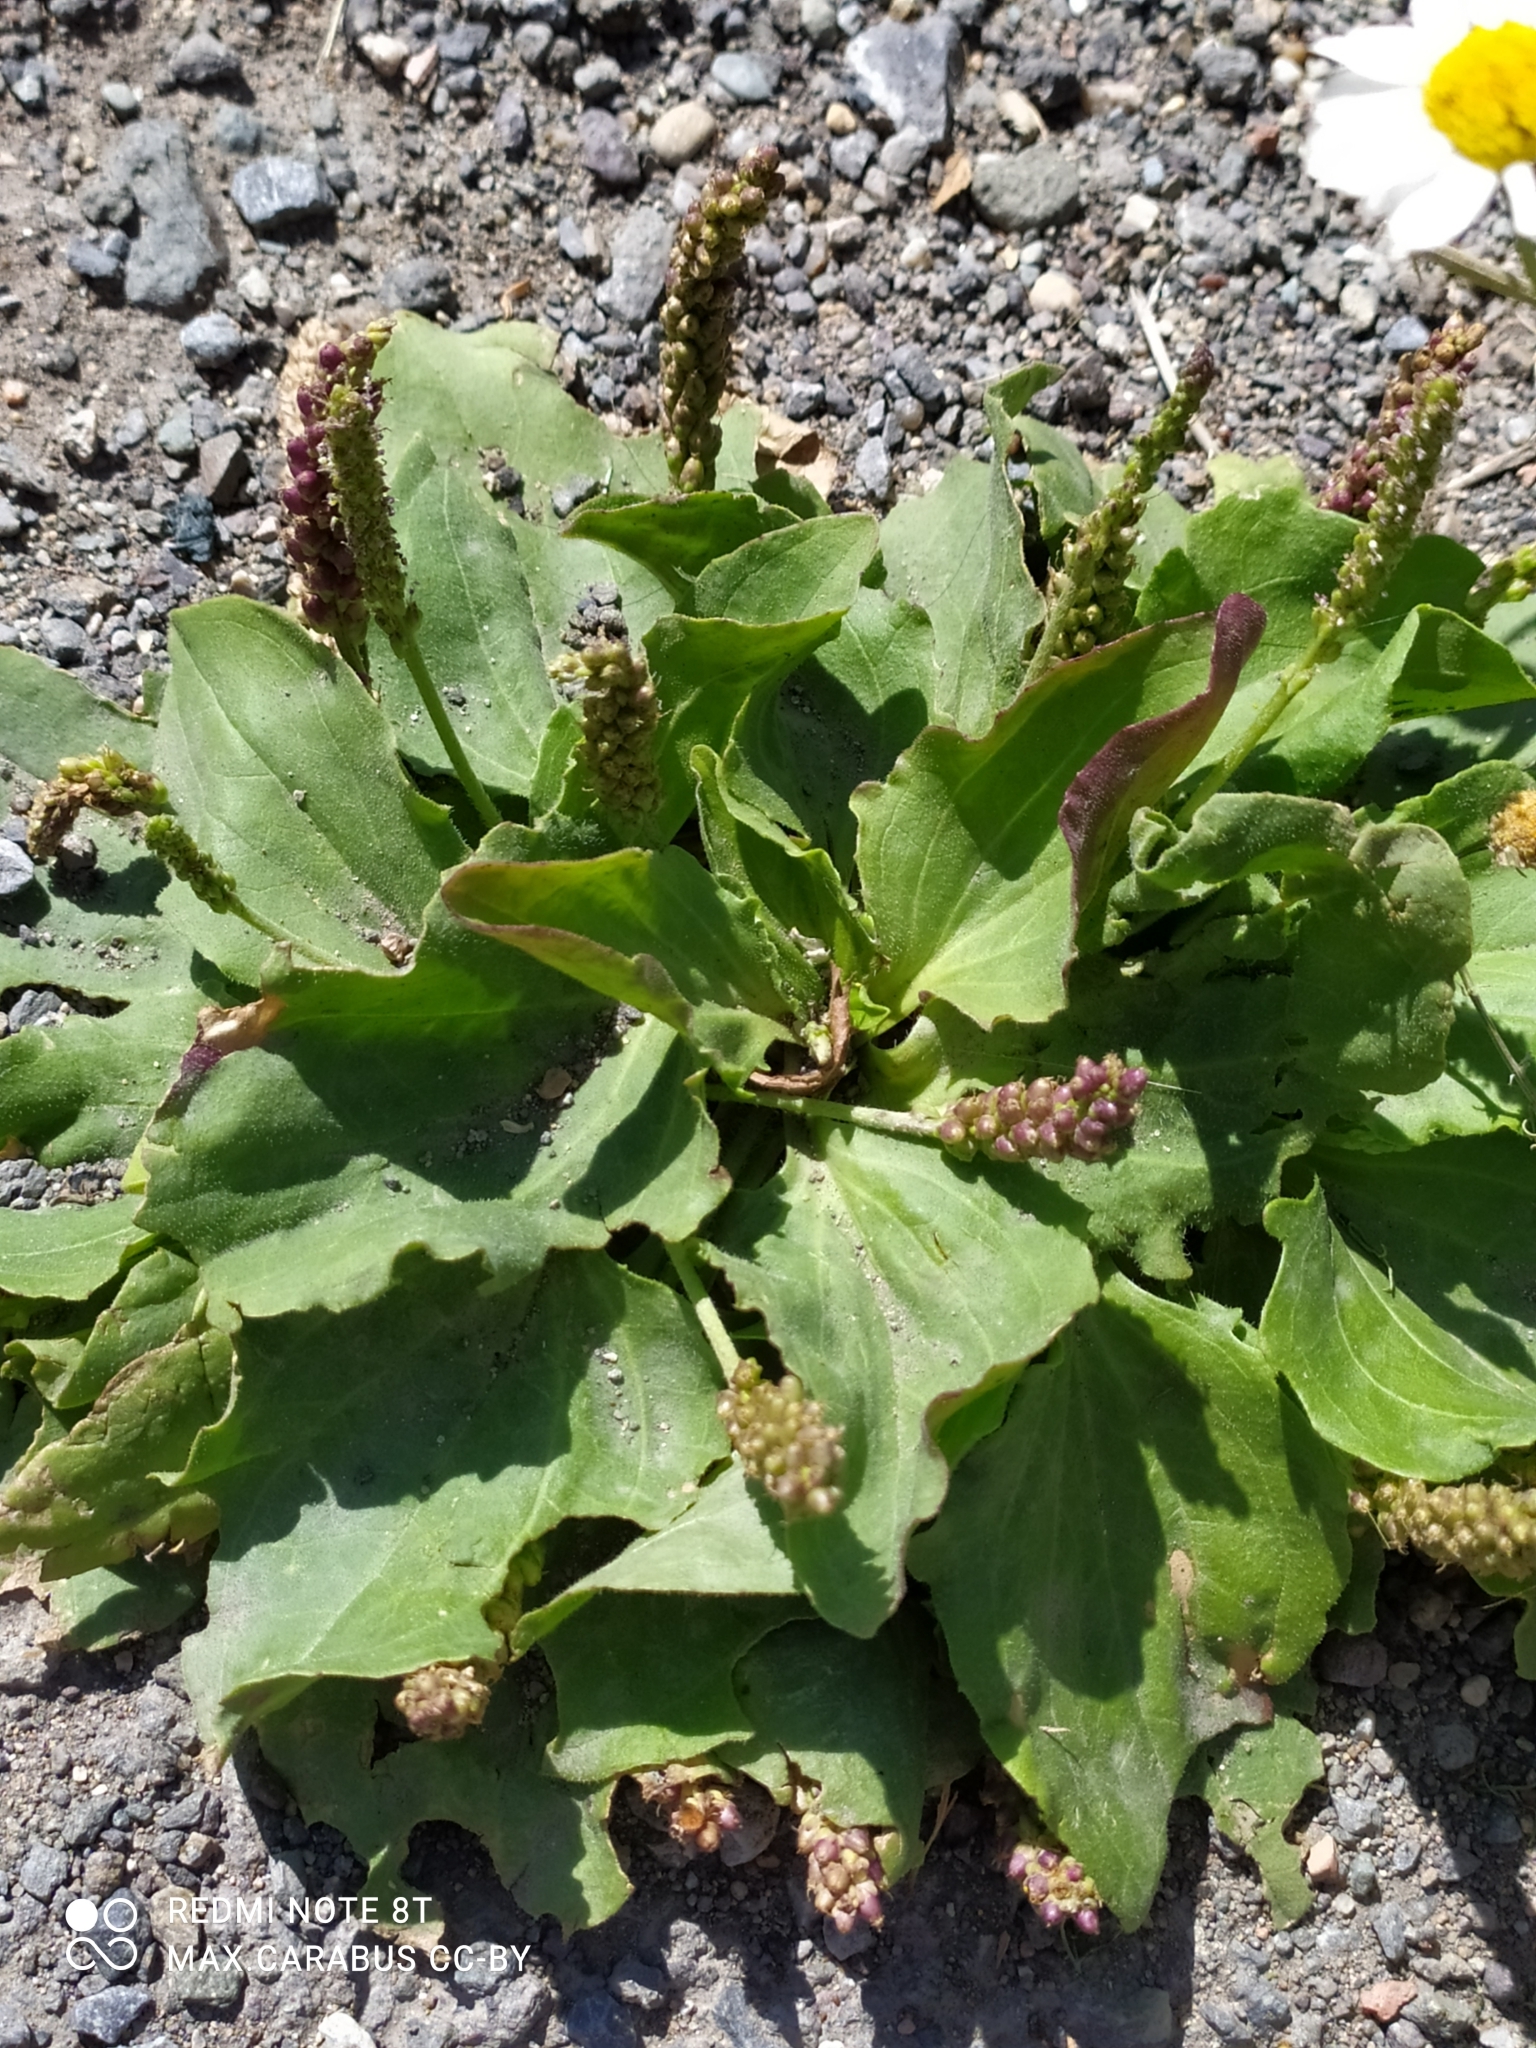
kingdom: Plantae
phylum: Tracheophyta
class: Magnoliopsida
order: Lamiales
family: Plantaginaceae
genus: Plantago
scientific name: Plantago major
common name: Common plantain
